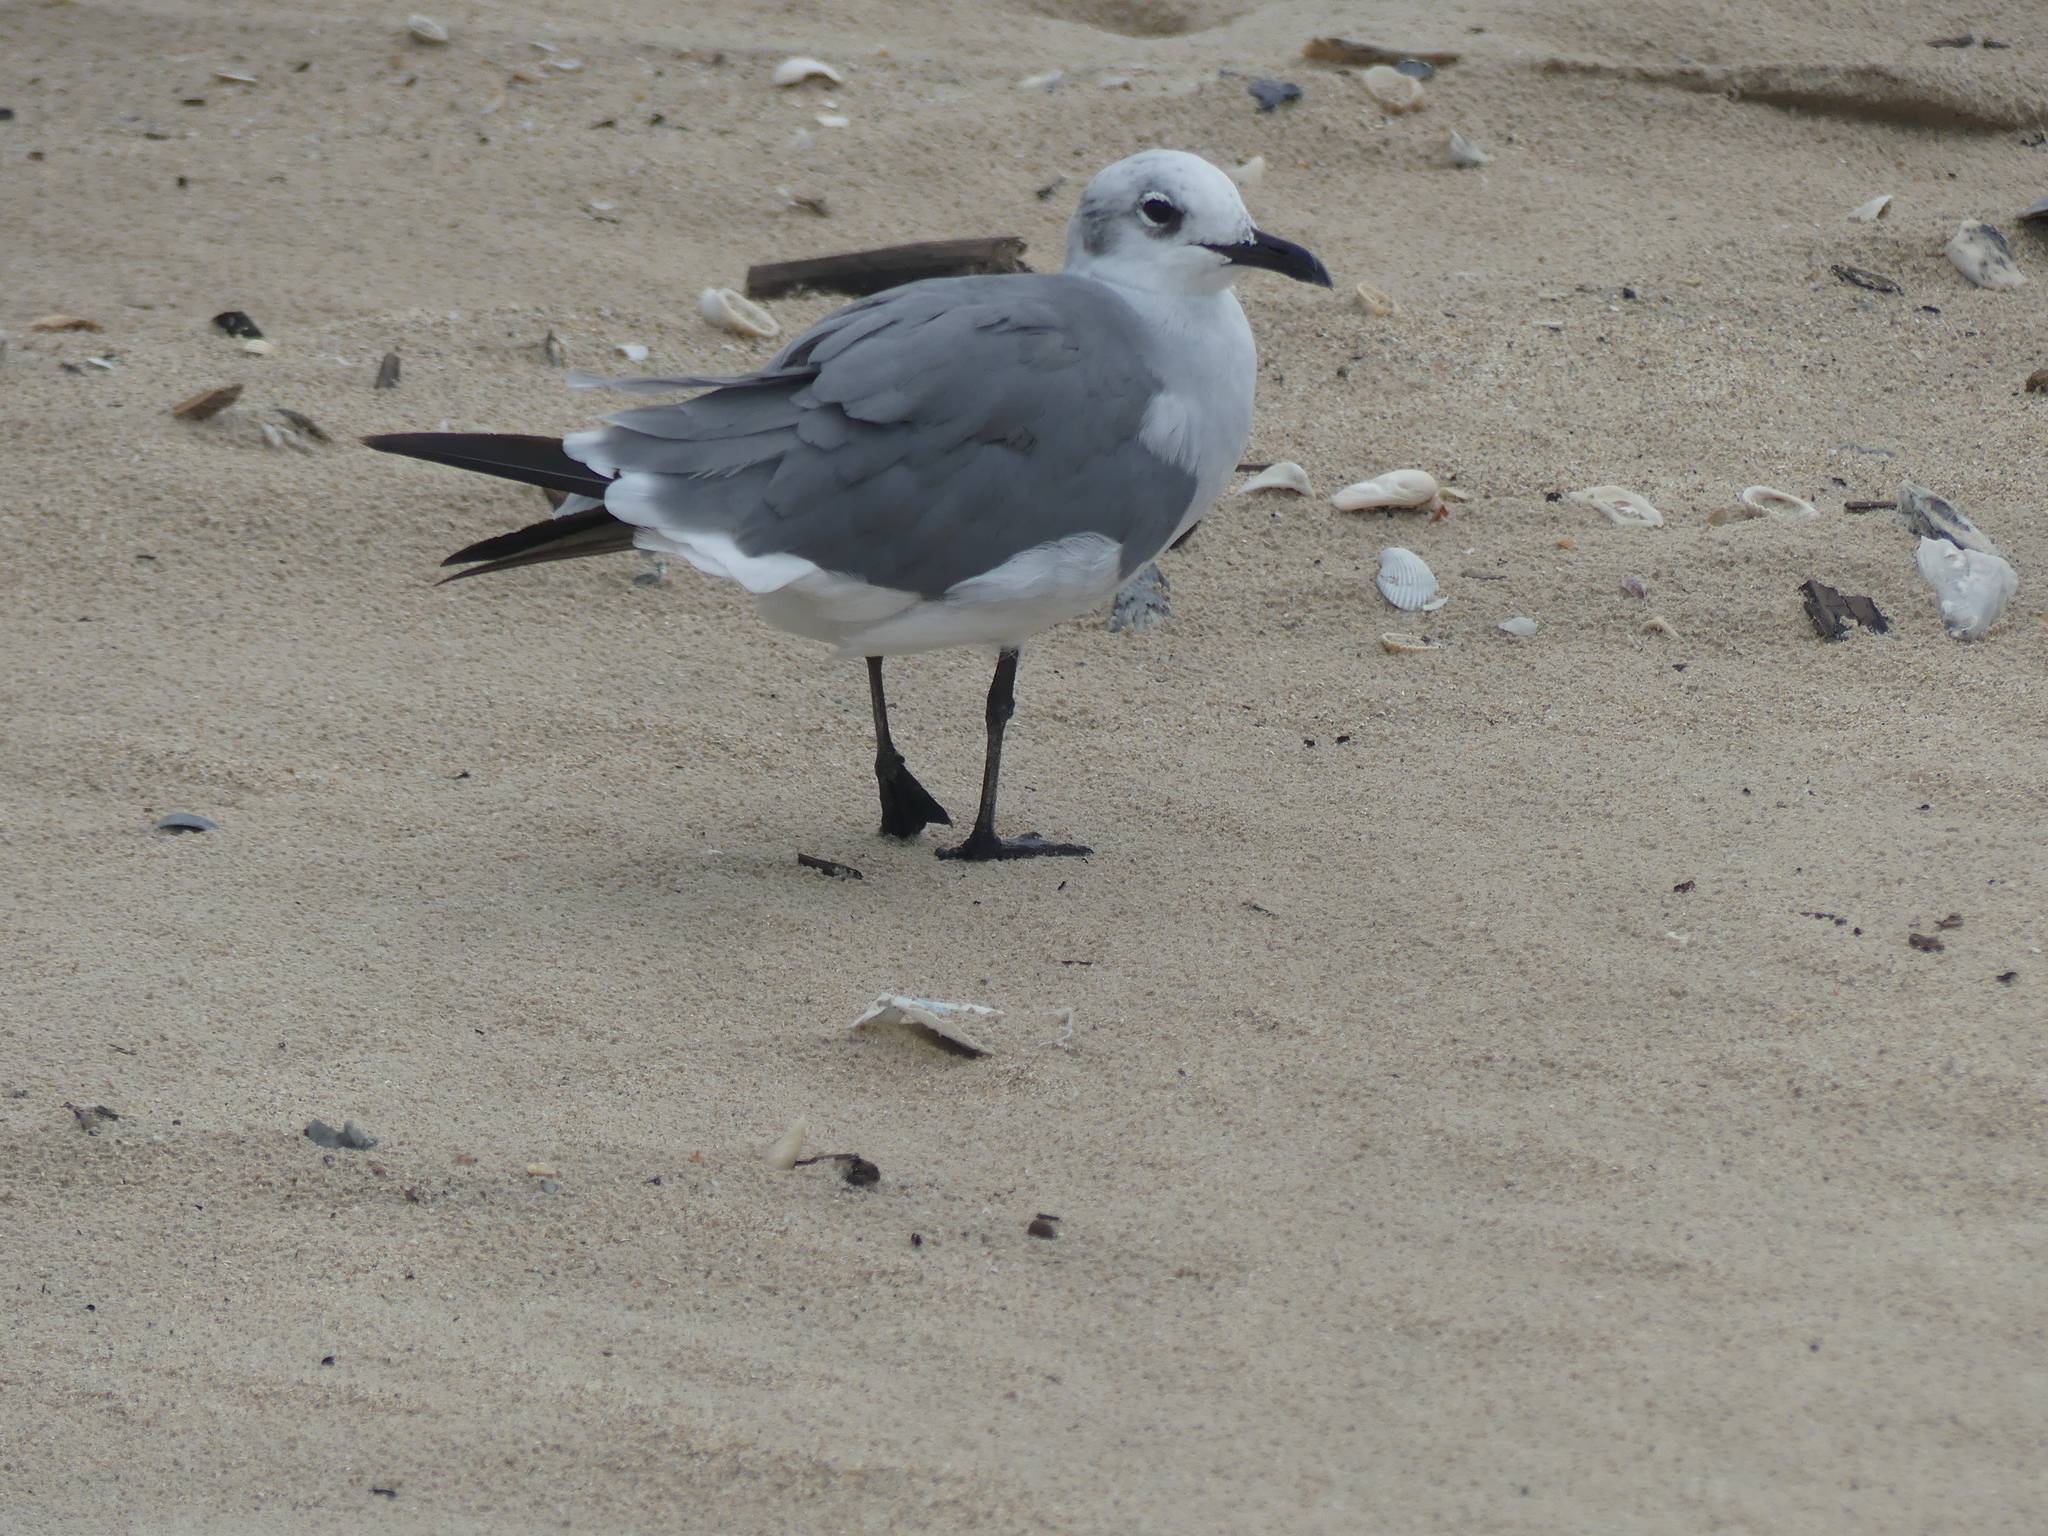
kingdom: Animalia
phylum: Chordata
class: Aves
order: Charadriiformes
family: Laridae
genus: Leucophaeus
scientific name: Leucophaeus atricilla
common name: Laughing gull
